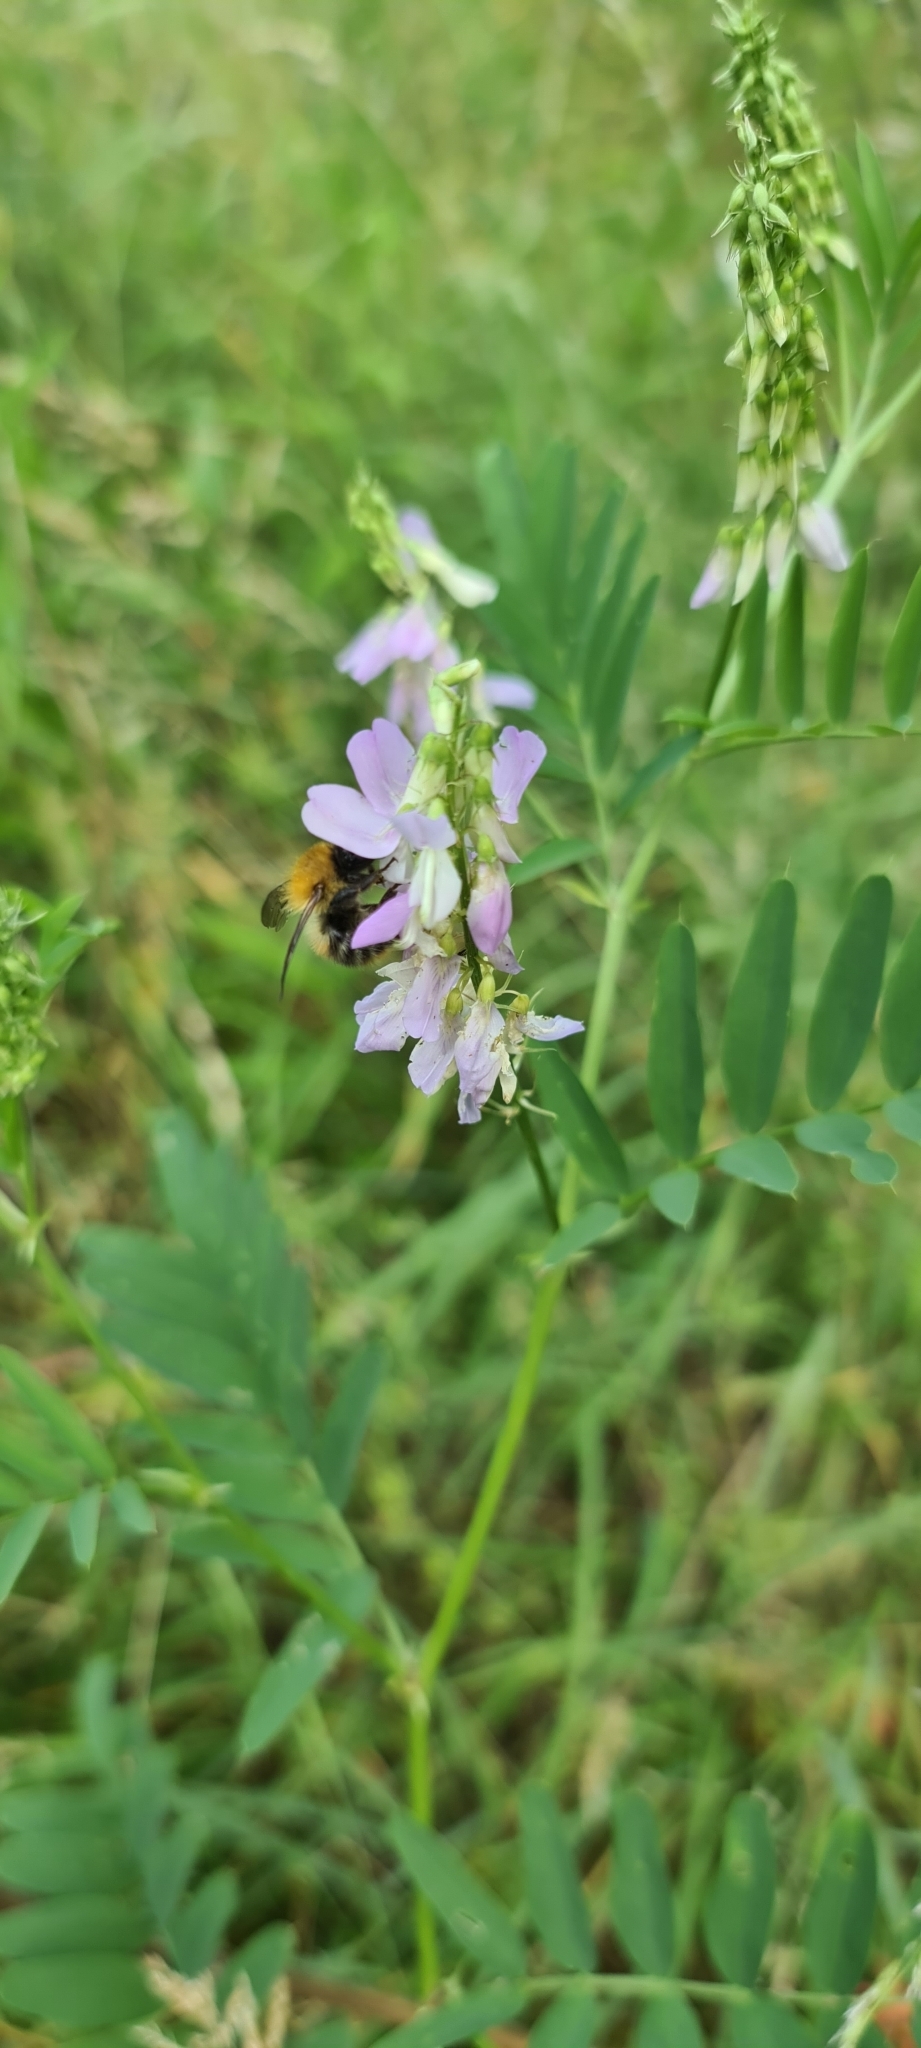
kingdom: Plantae
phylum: Tracheophyta
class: Magnoliopsida
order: Fabales
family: Fabaceae
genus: Galega
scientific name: Galega officinalis
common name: Goat's-rue
